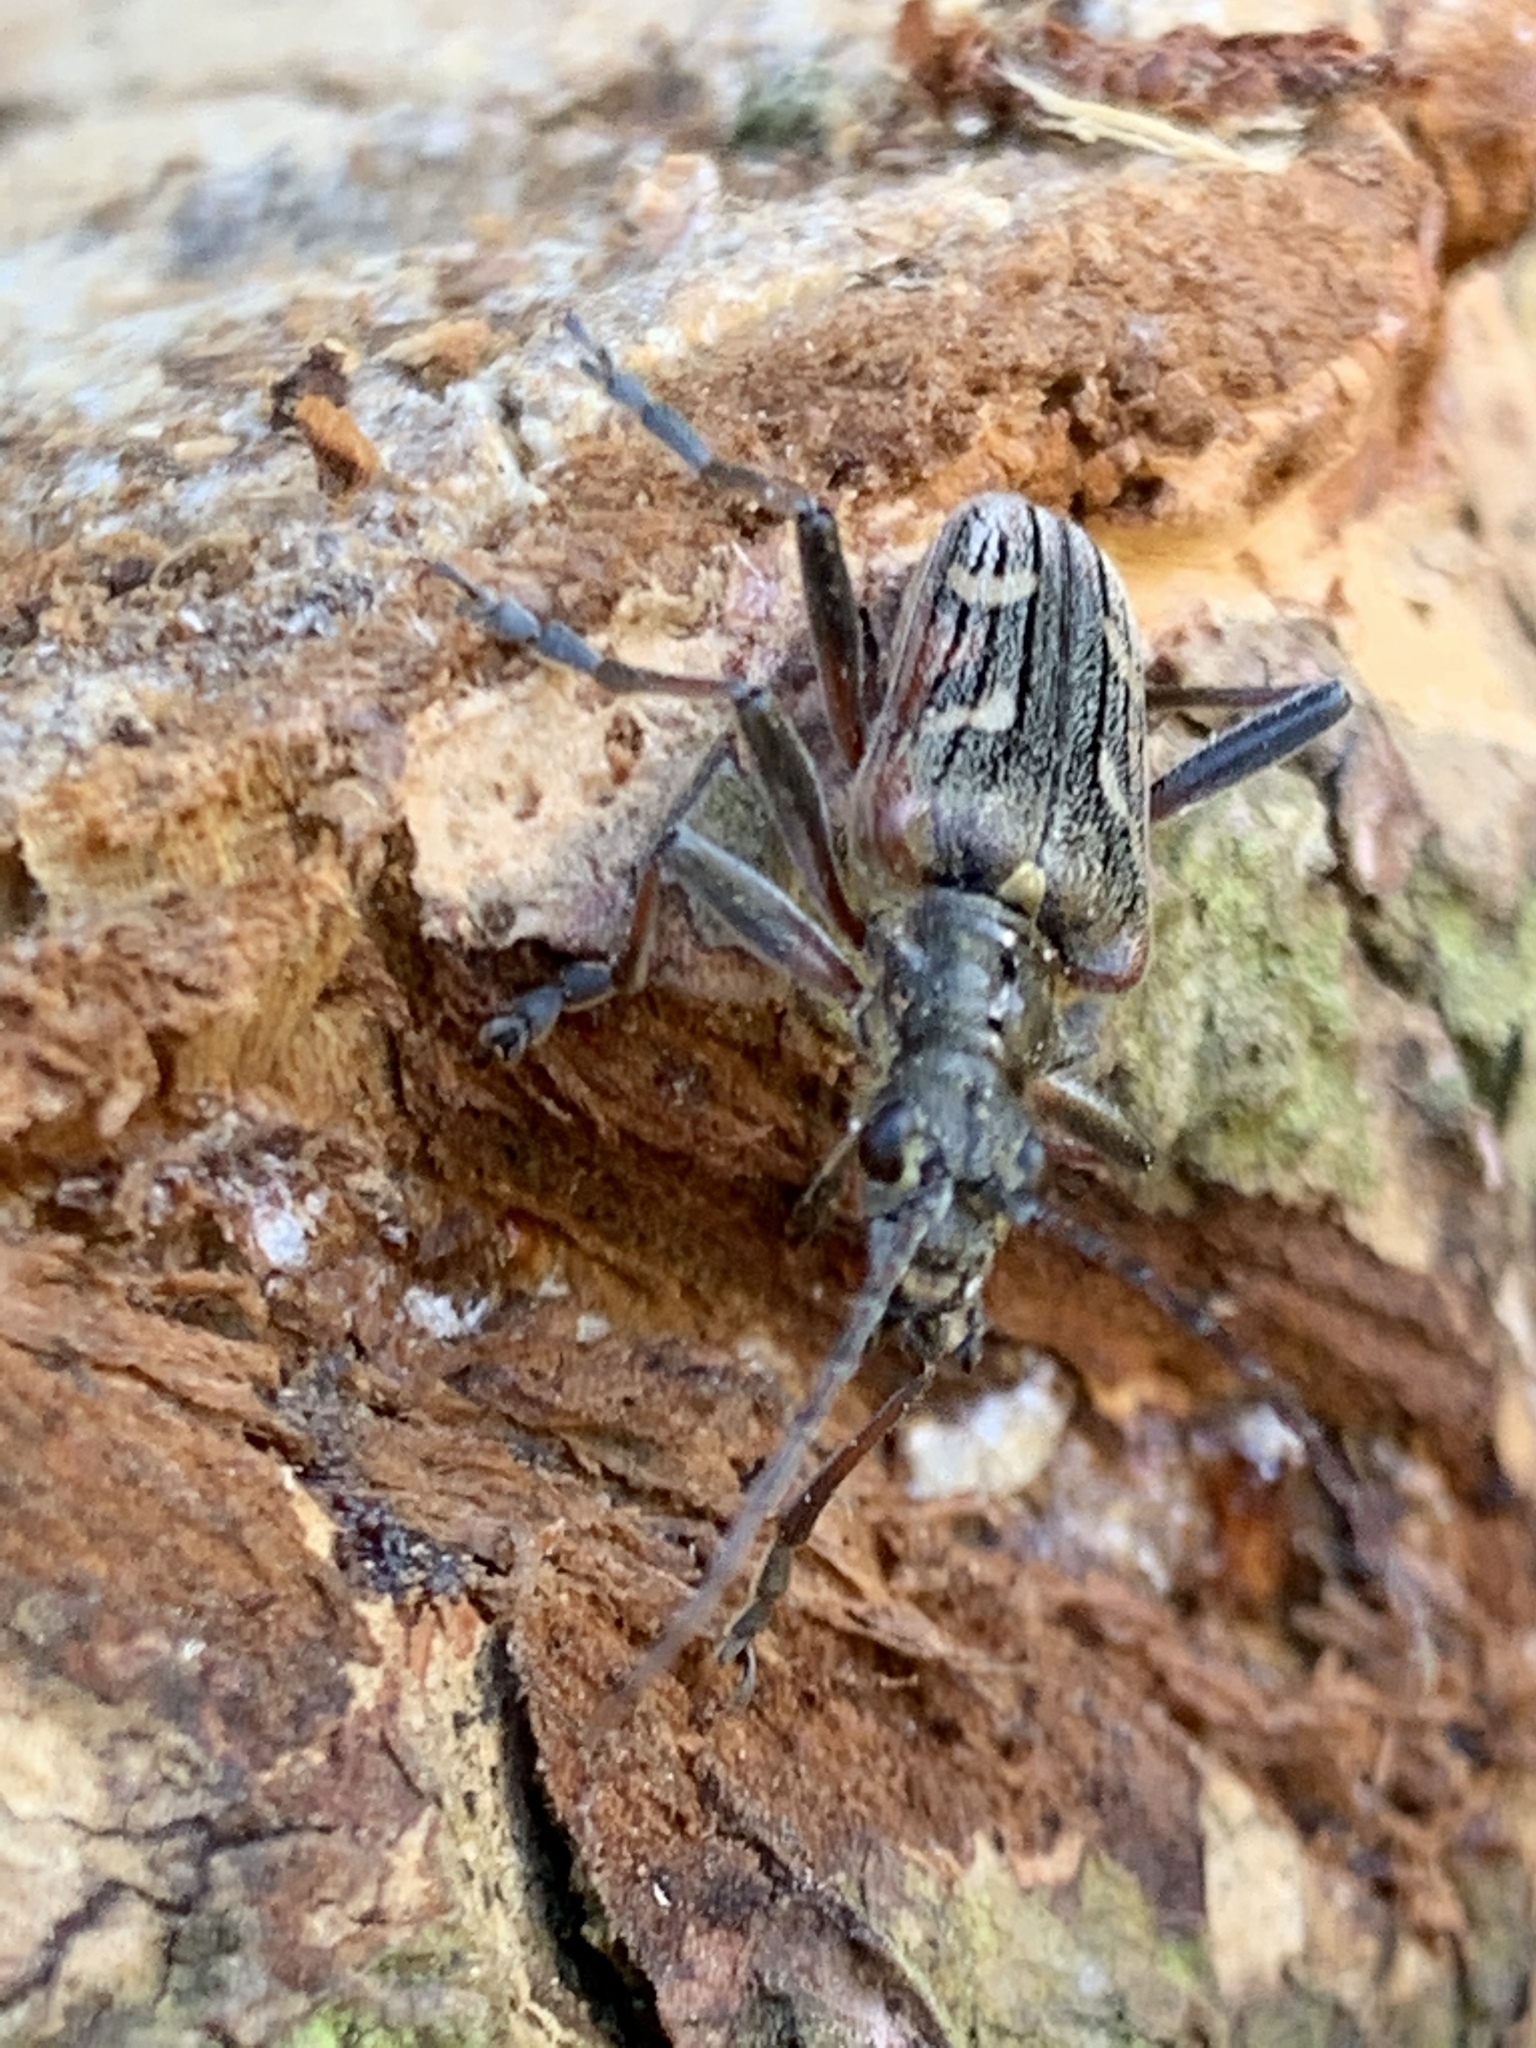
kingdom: Animalia
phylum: Arthropoda
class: Insecta
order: Coleoptera
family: Cerambycidae
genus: Rhagium
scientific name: Rhagium bifasciatum
